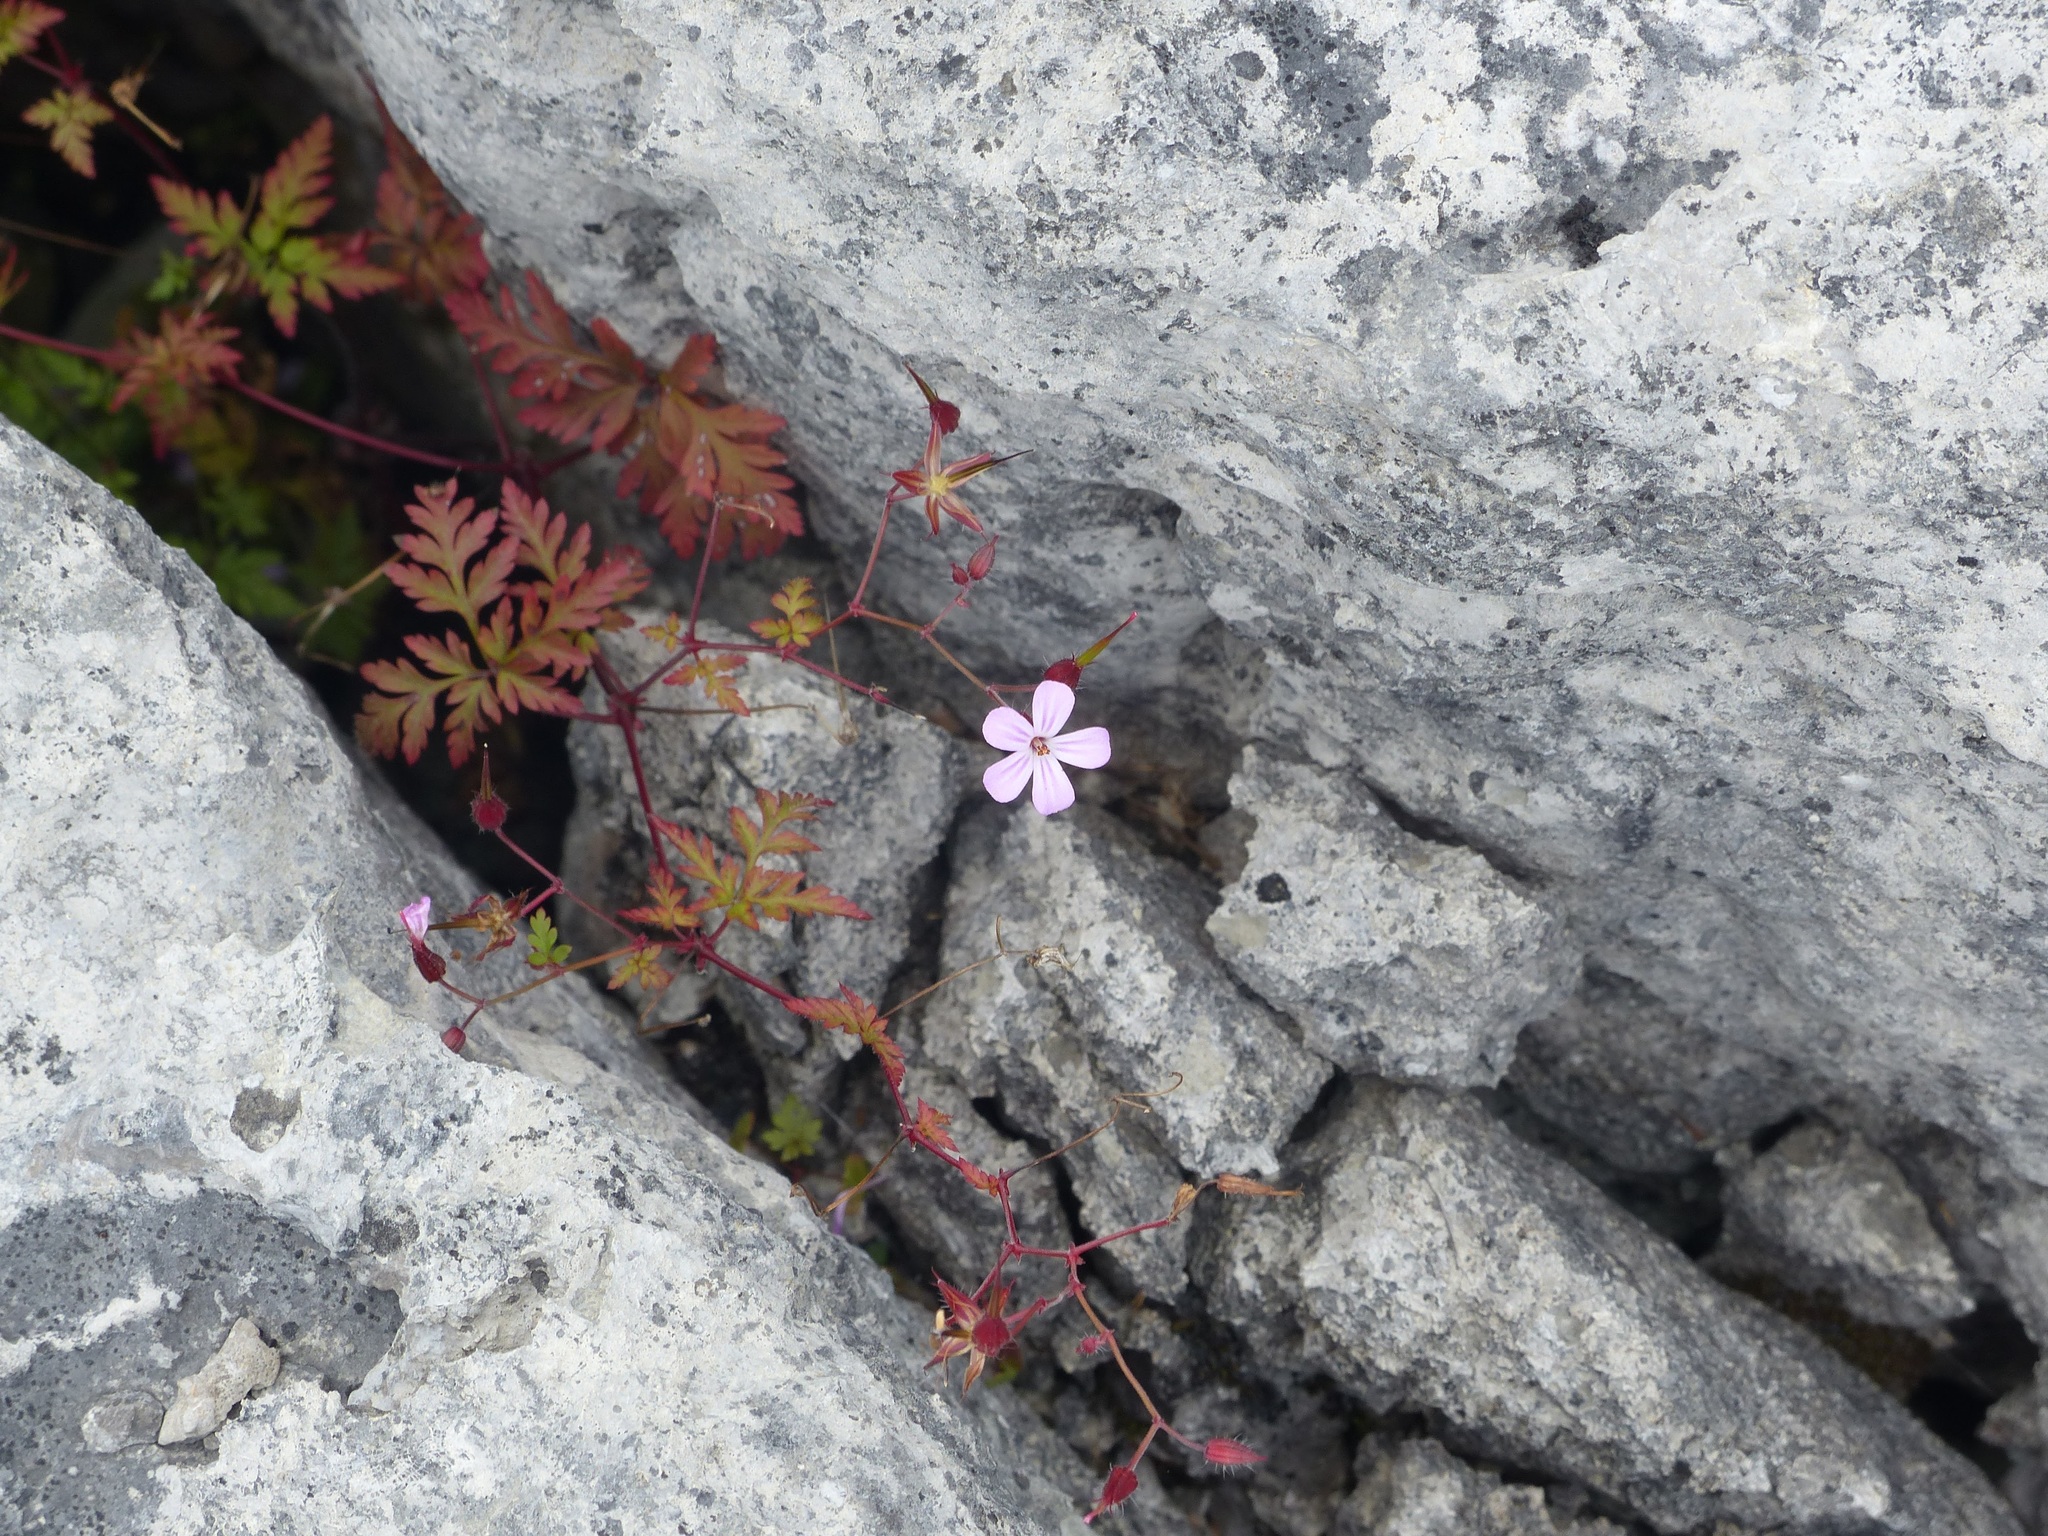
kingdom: Plantae
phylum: Tracheophyta
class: Magnoliopsida
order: Geraniales
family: Geraniaceae
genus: Geranium
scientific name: Geranium robertianum
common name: Herb-robert
